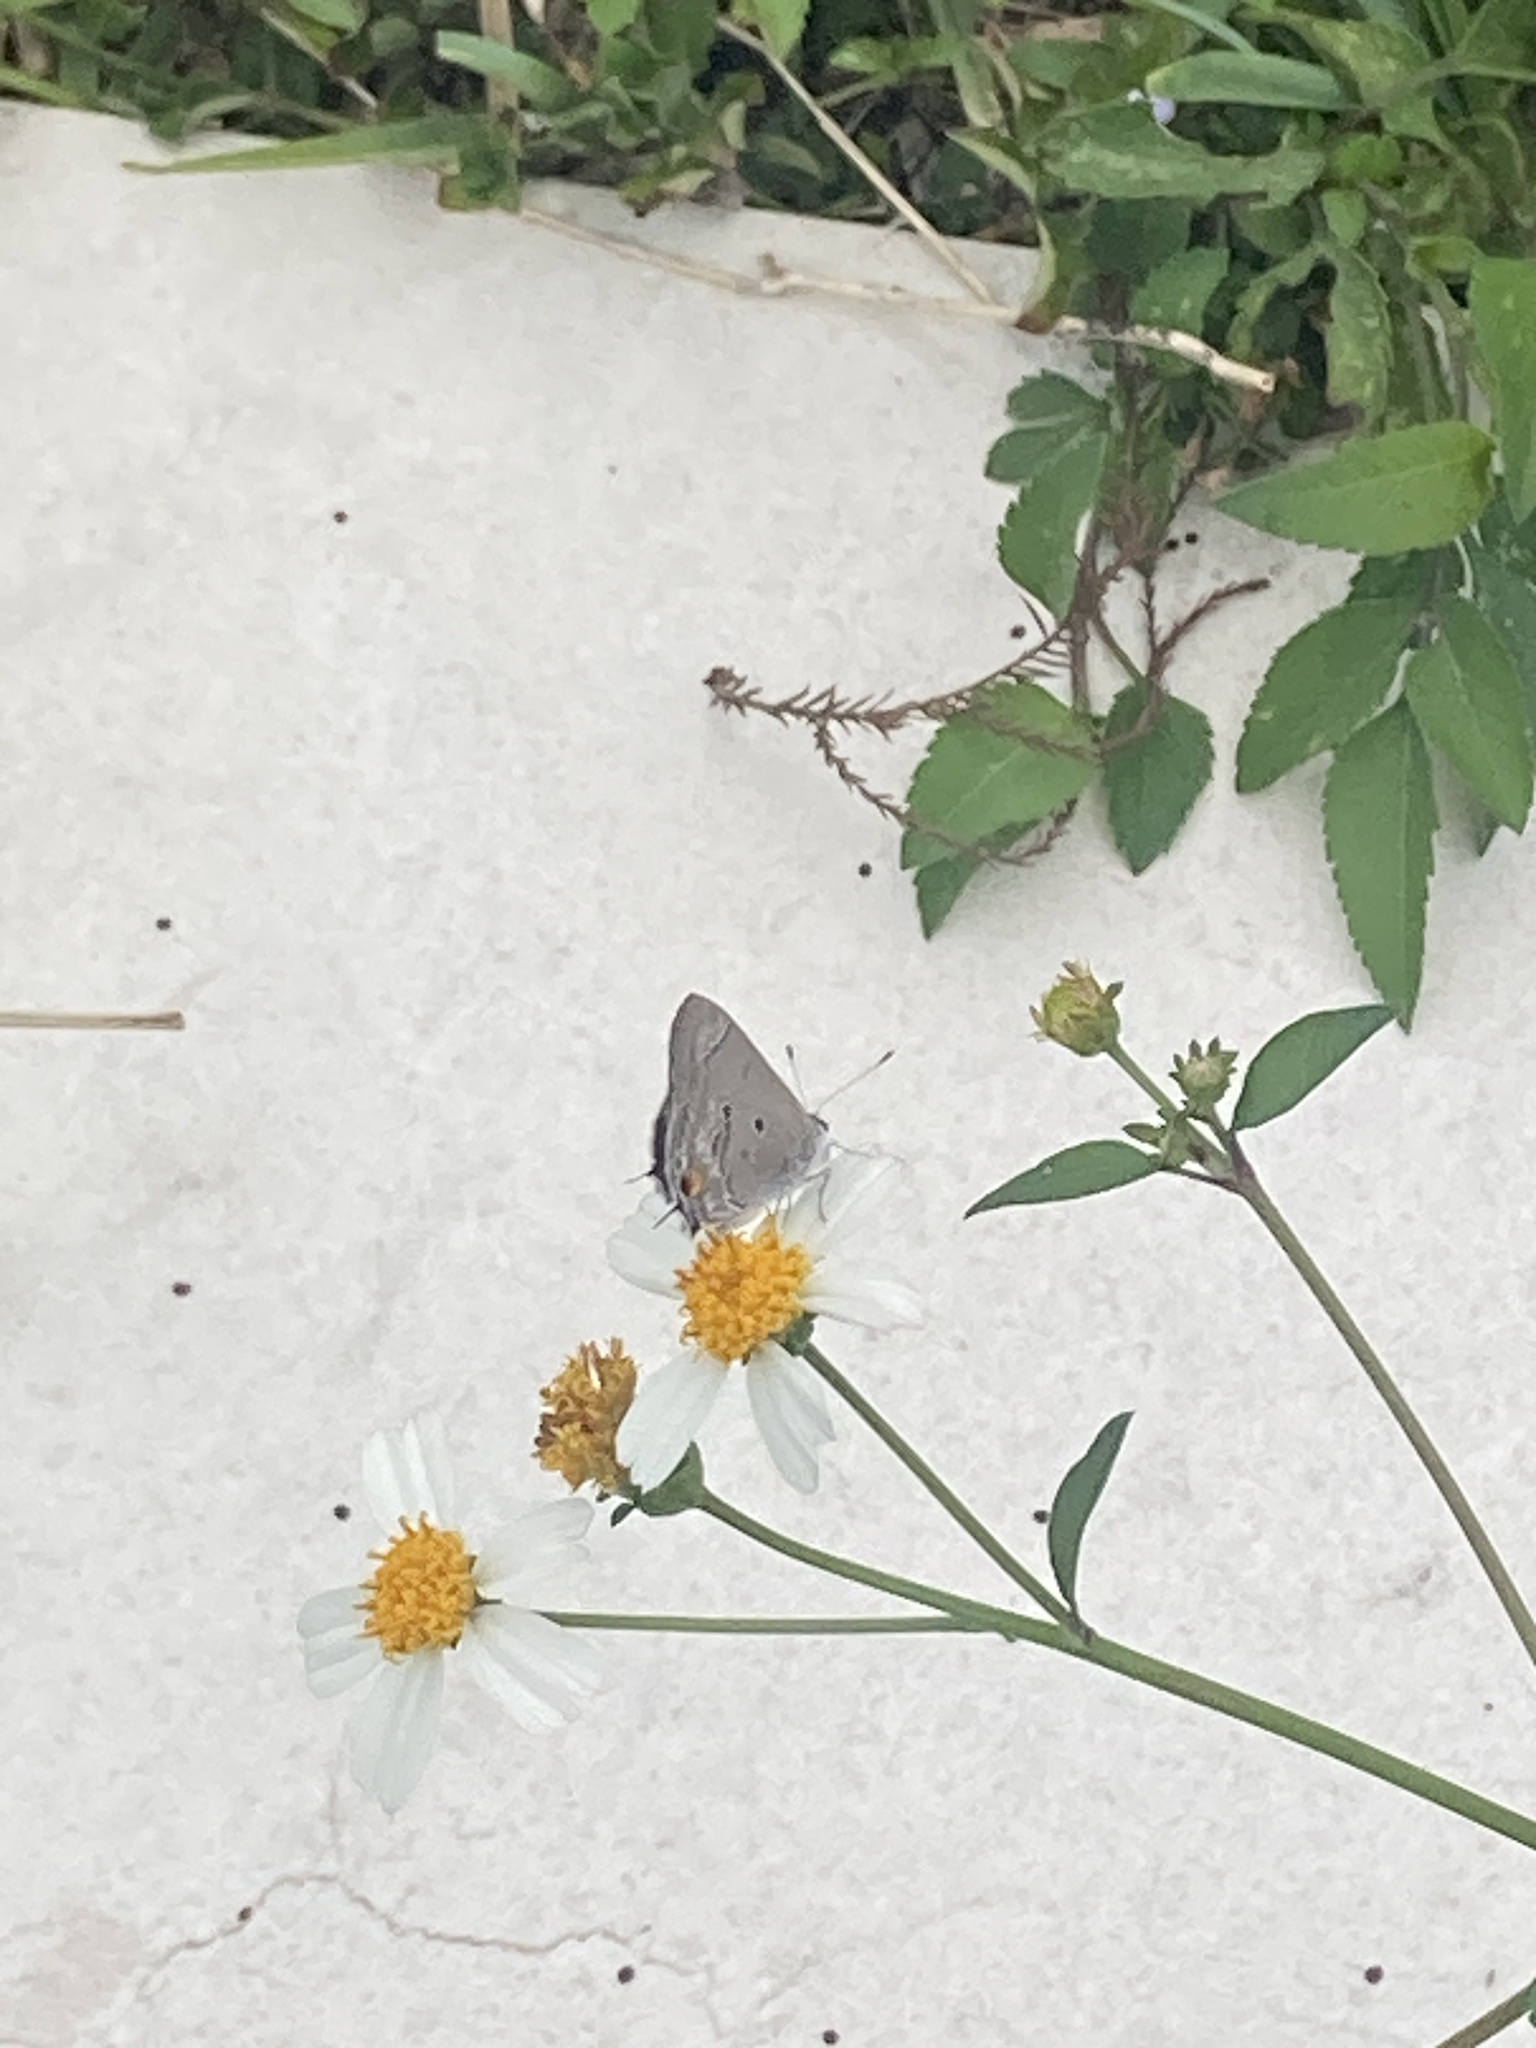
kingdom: Animalia
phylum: Arthropoda
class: Insecta
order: Lepidoptera
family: Lycaenidae
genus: Callicista
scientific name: Callicista columella
